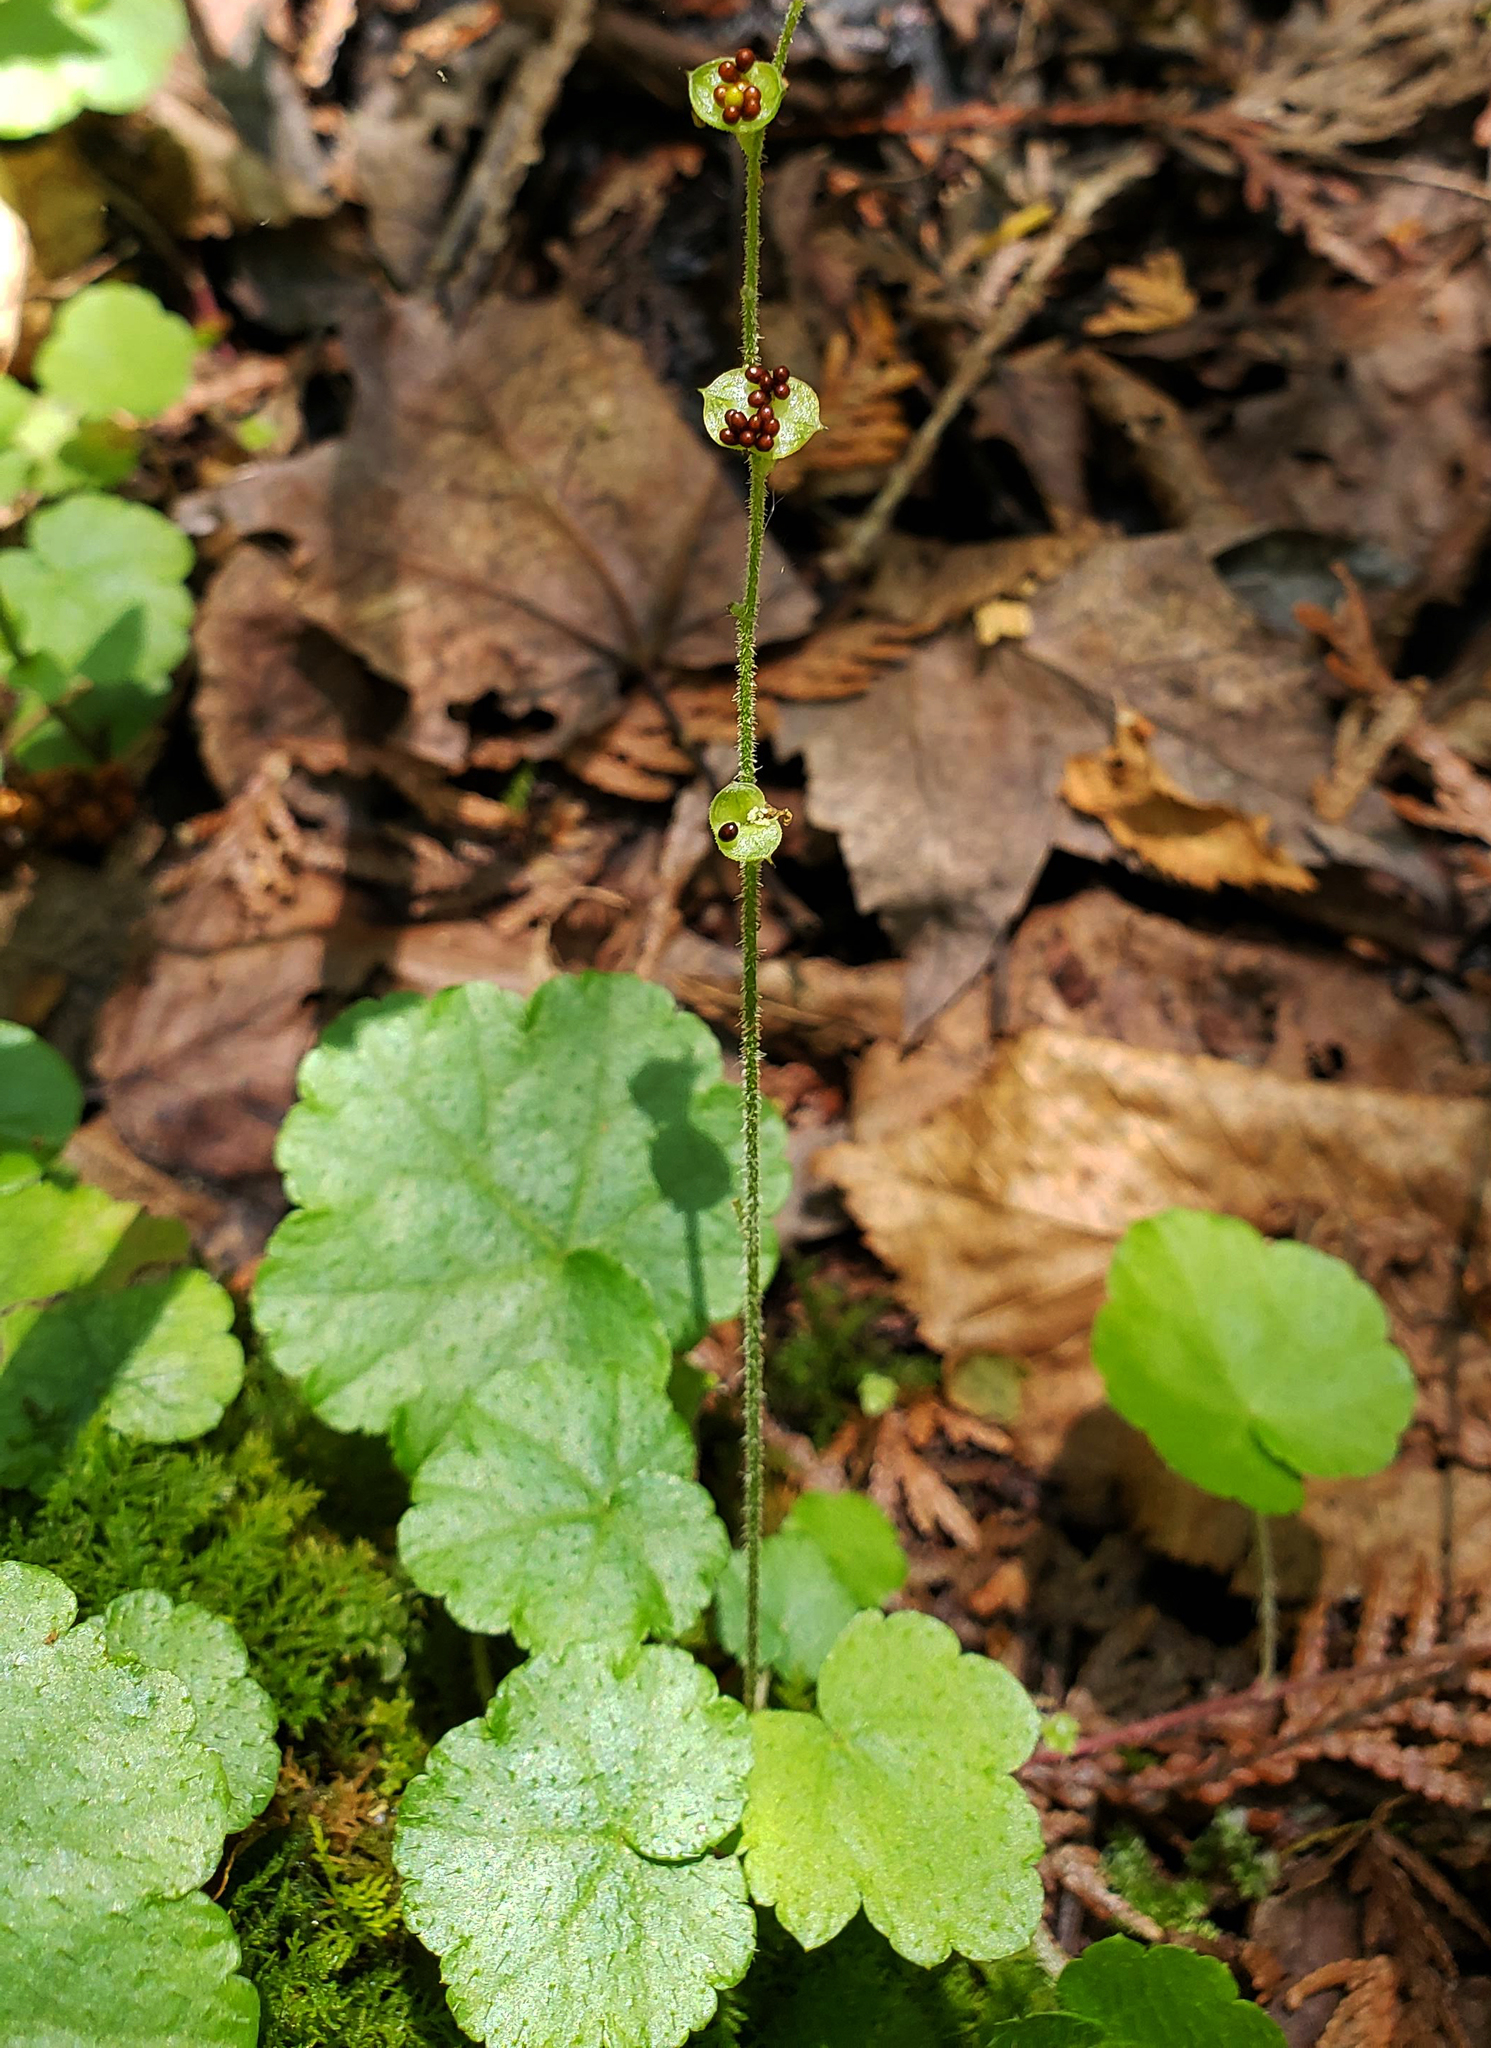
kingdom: Plantae
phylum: Tracheophyta
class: Magnoliopsida
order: Saxifragales
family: Saxifragaceae
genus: Mitella
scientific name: Mitella nuda
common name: Bare-stemmed bishop's-cap
